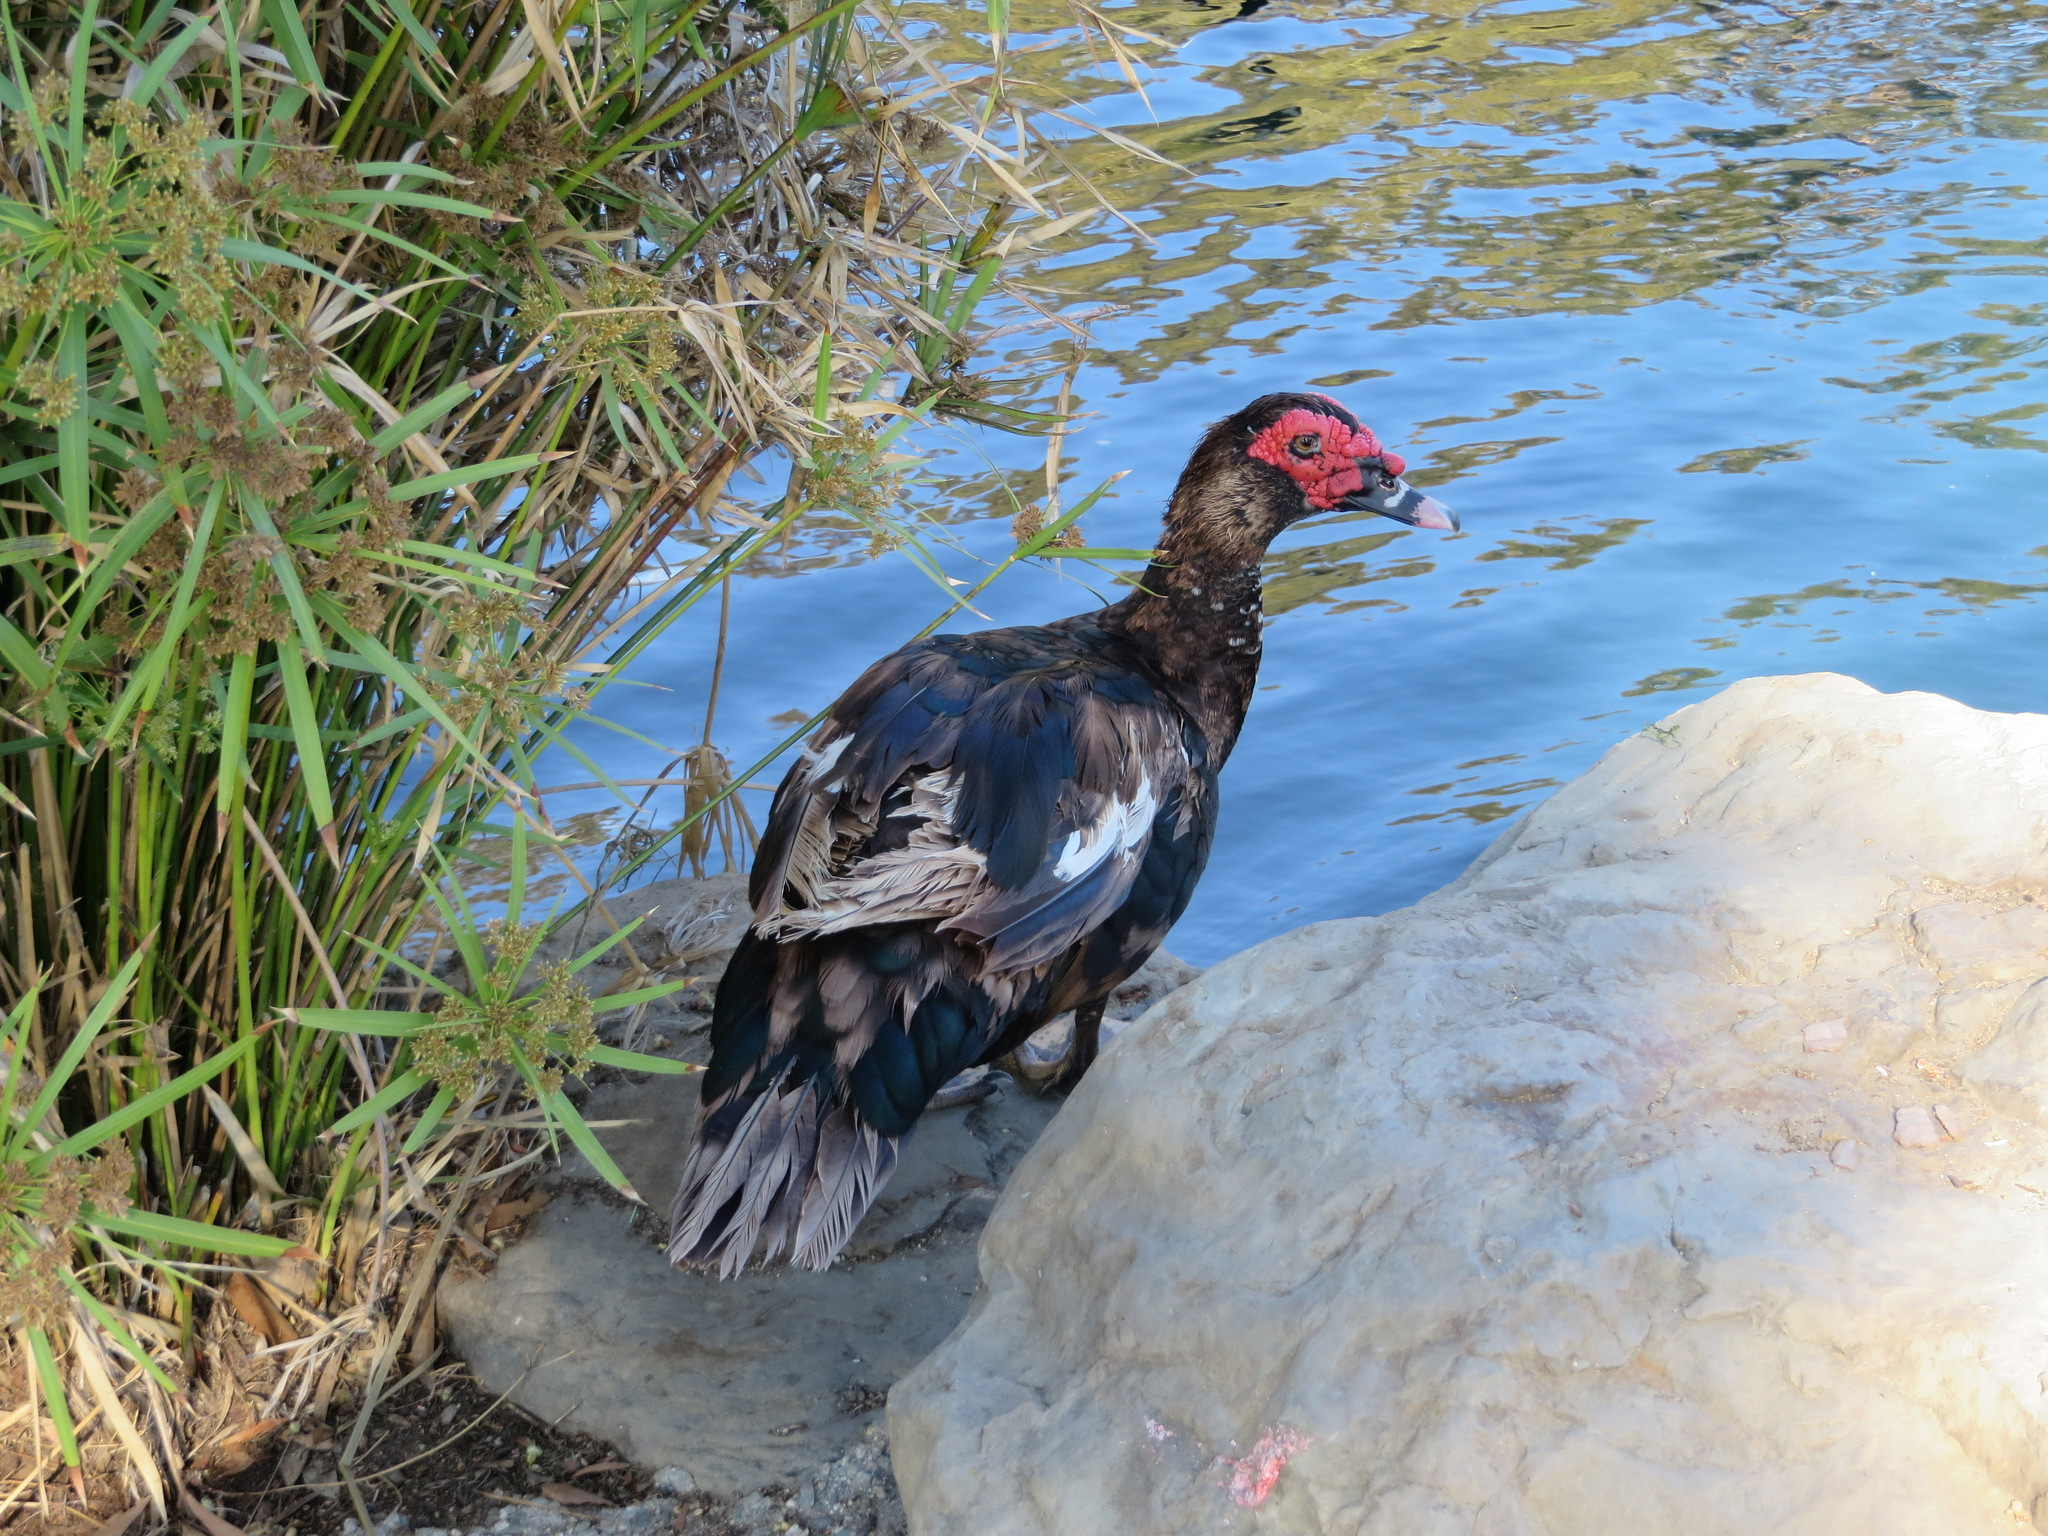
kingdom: Animalia
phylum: Chordata
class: Aves
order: Anseriformes
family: Anatidae
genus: Cairina
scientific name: Cairina moschata
